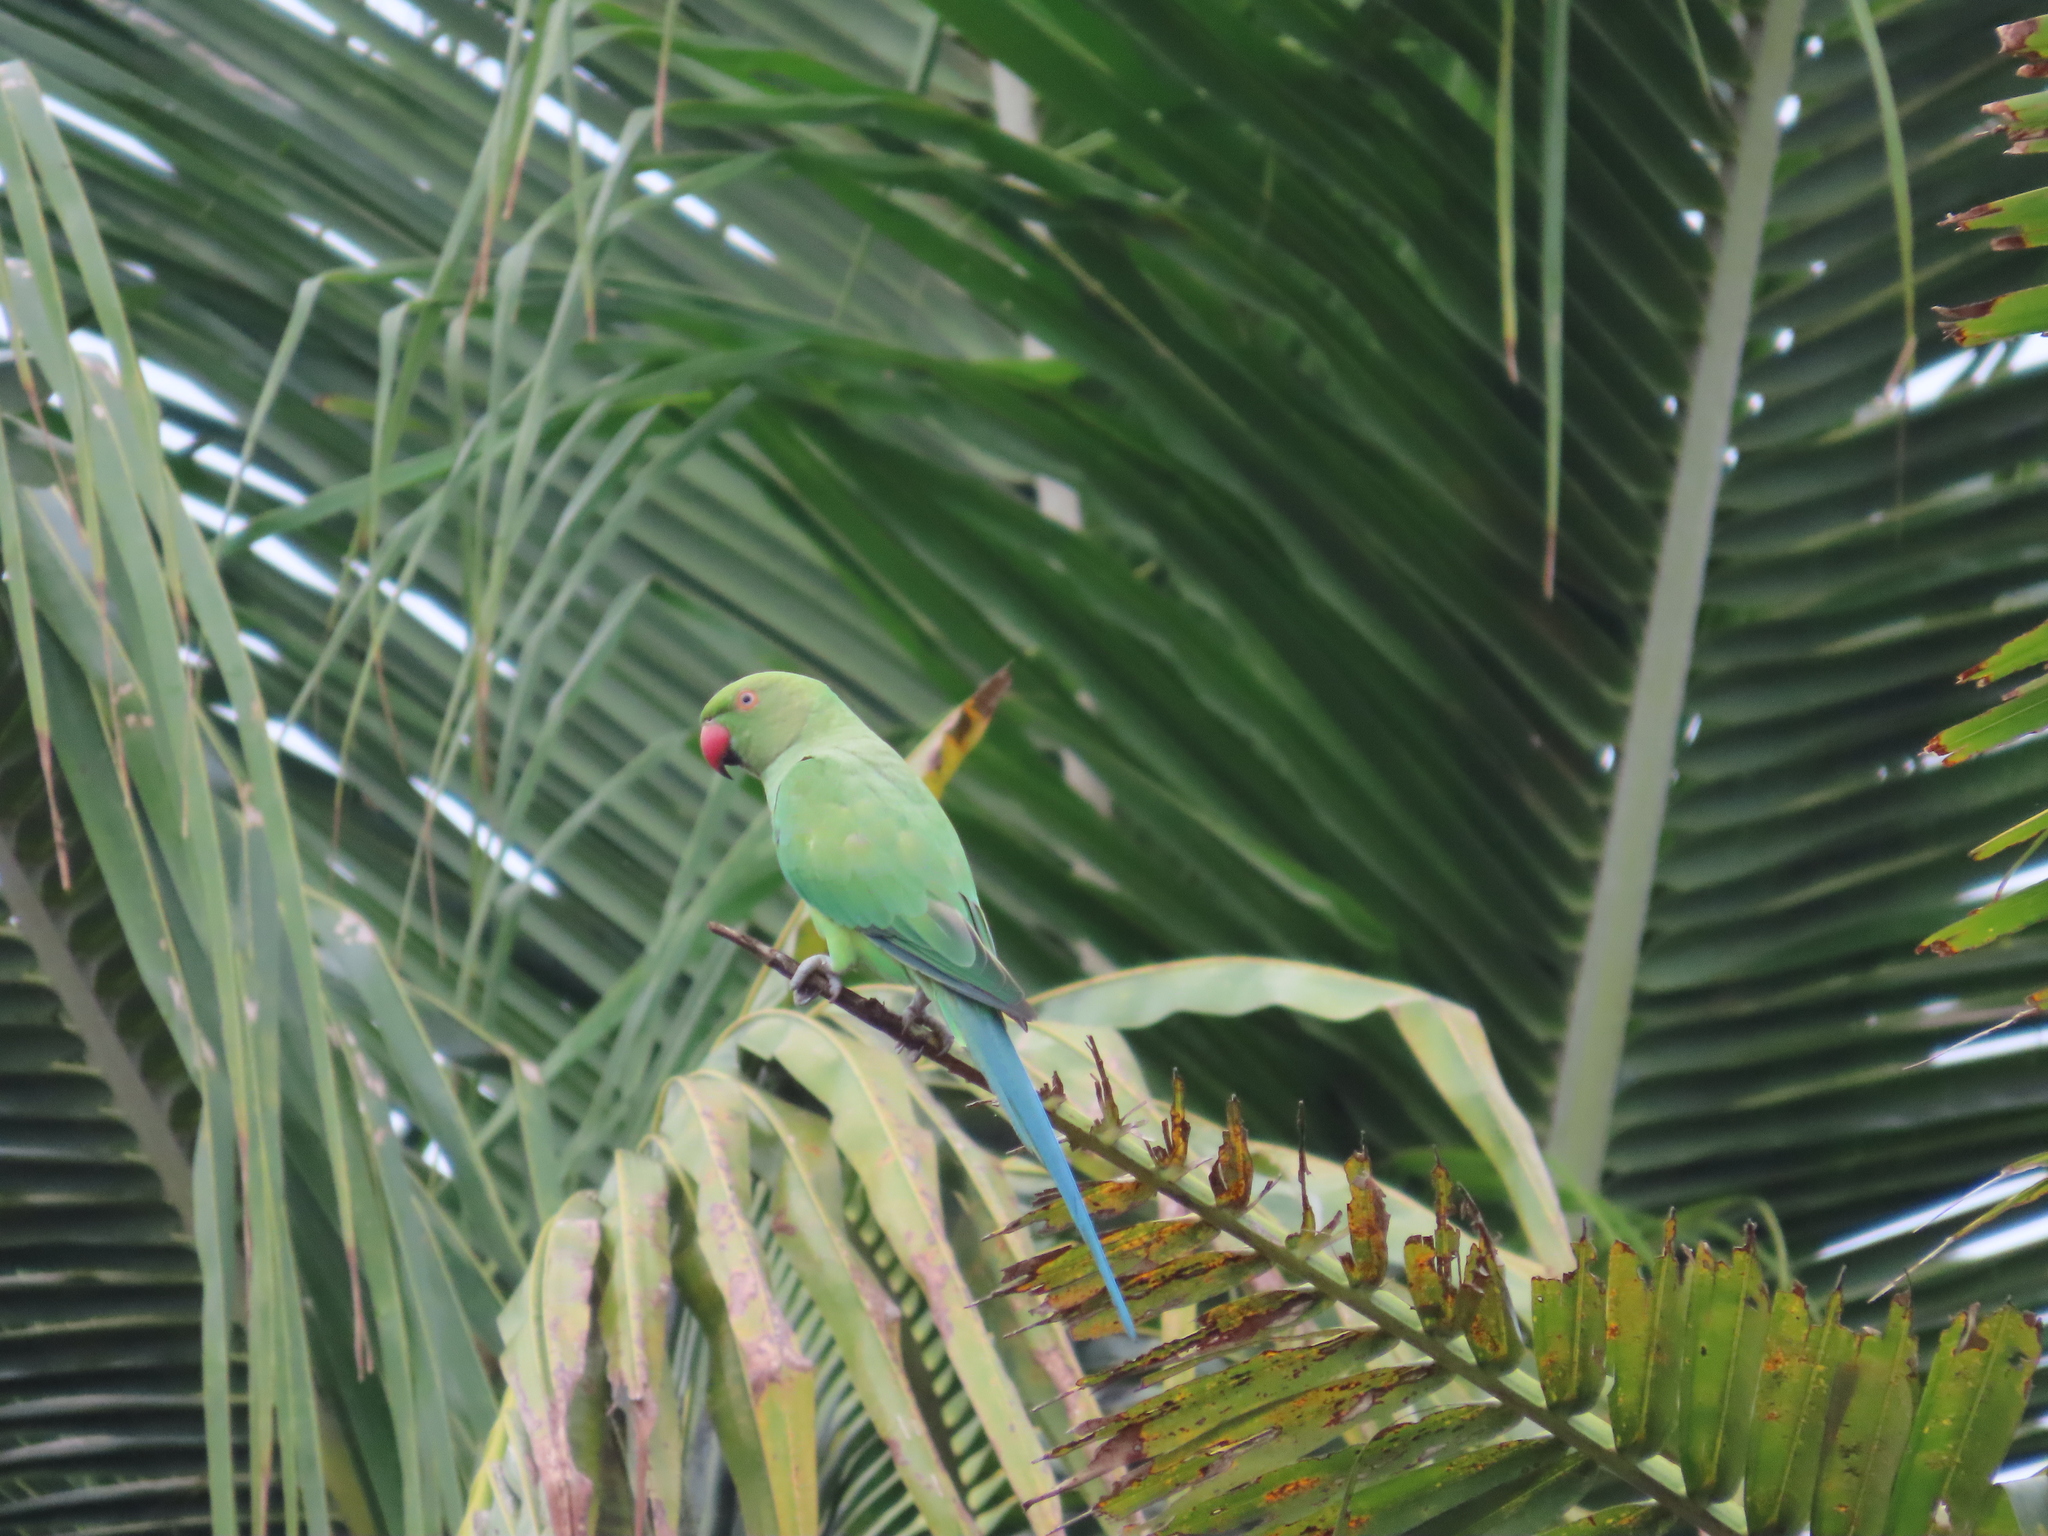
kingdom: Animalia
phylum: Chordata
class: Aves
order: Psittaciformes
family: Psittacidae
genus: Psittacula
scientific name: Psittacula krameri
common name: Rose-ringed parakeet
